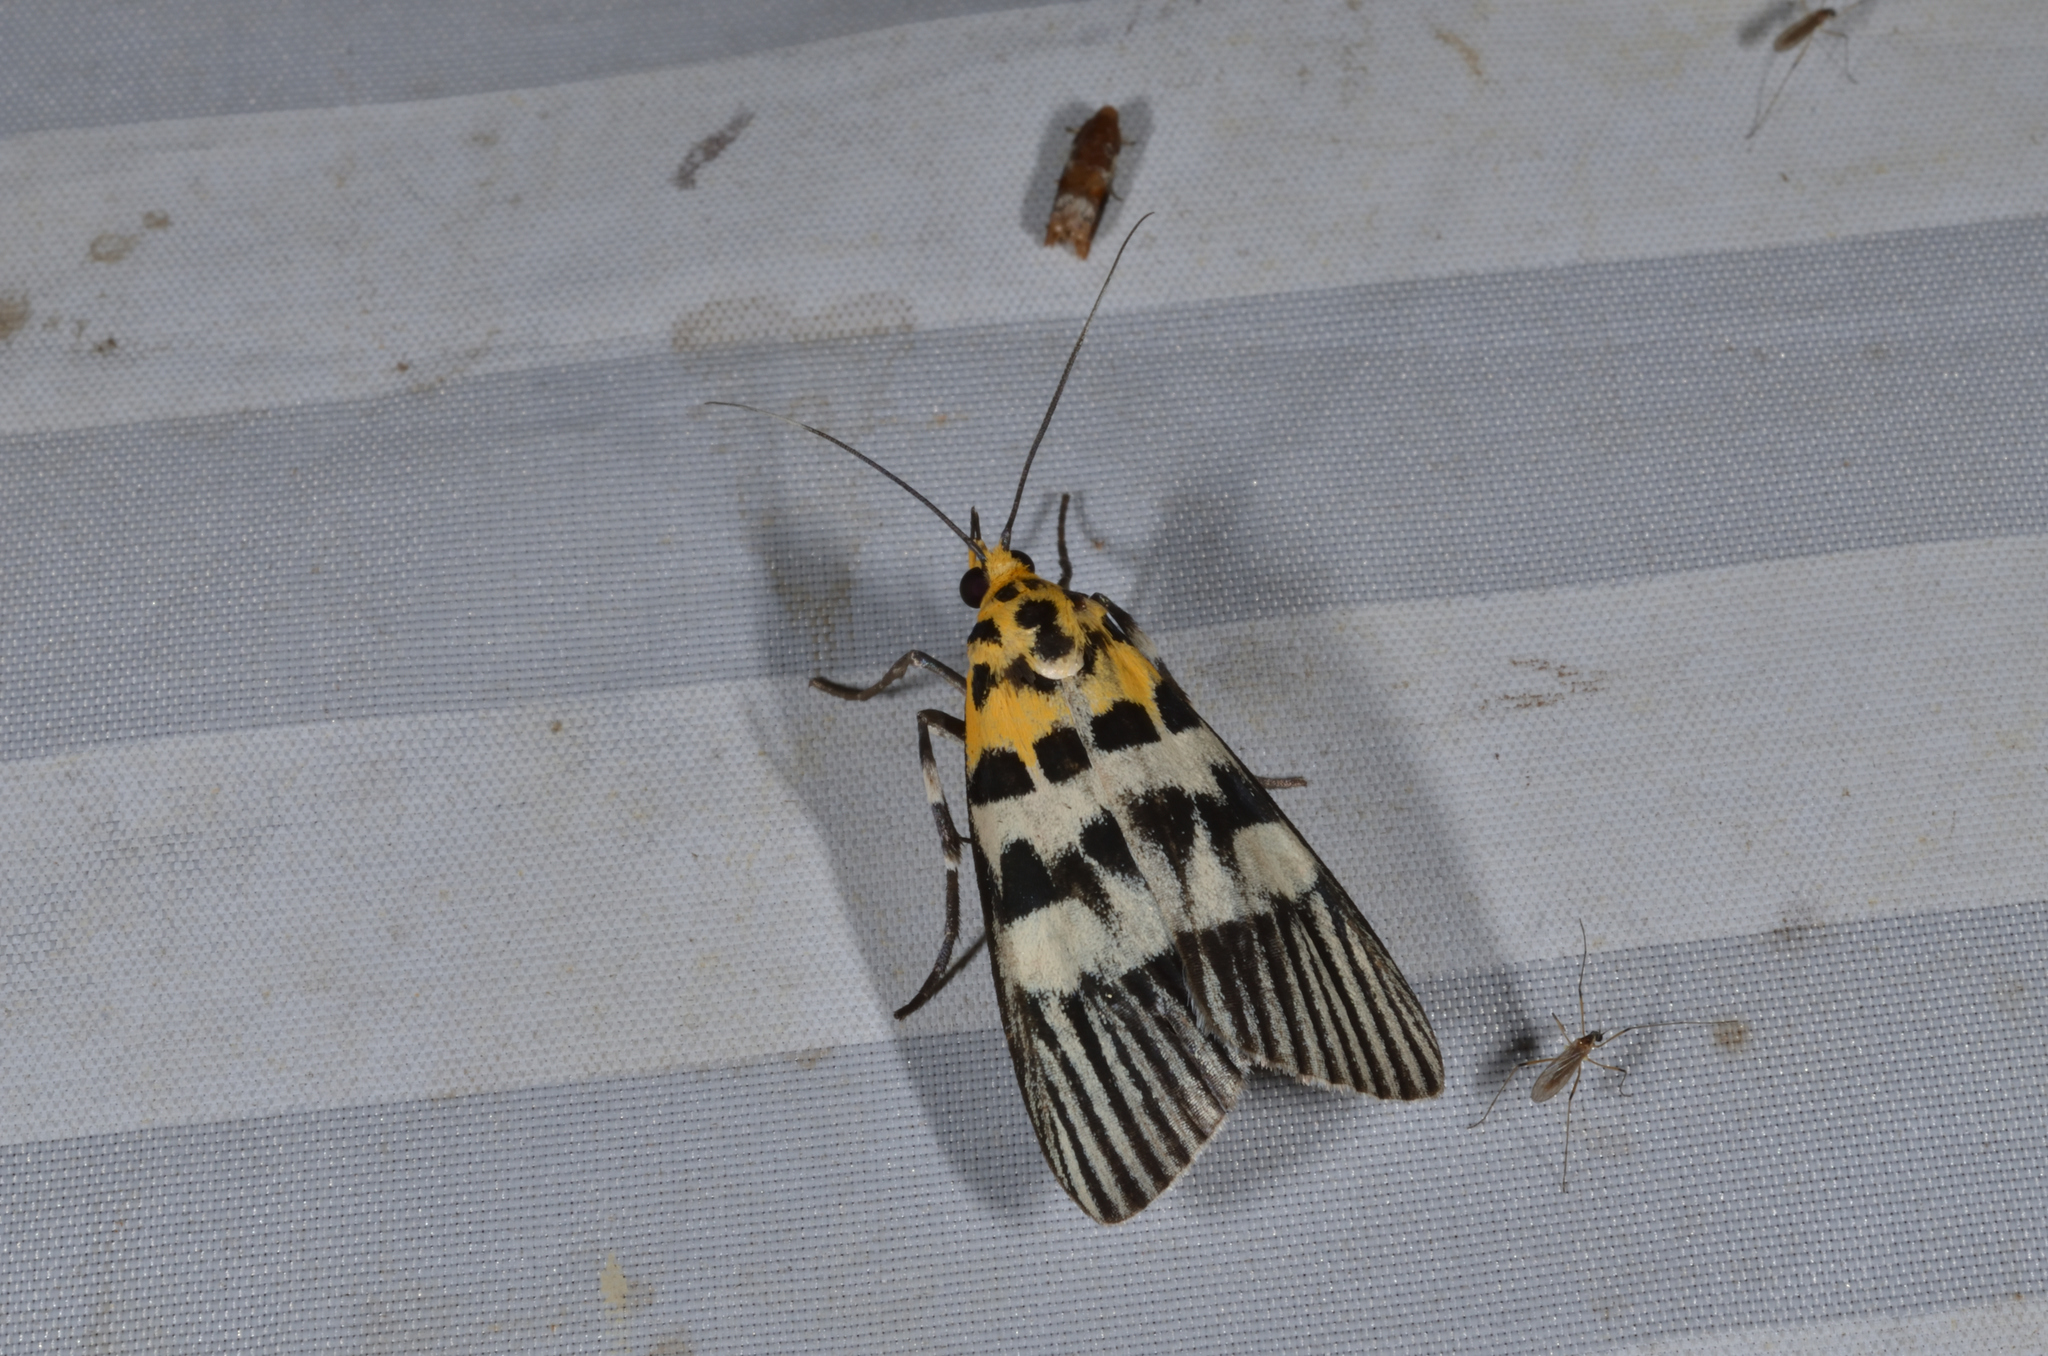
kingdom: Animalia
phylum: Arthropoda
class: Insecta
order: Lepidoptera
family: Pyralidae
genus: Vitessa
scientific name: Vitessa suradeva
